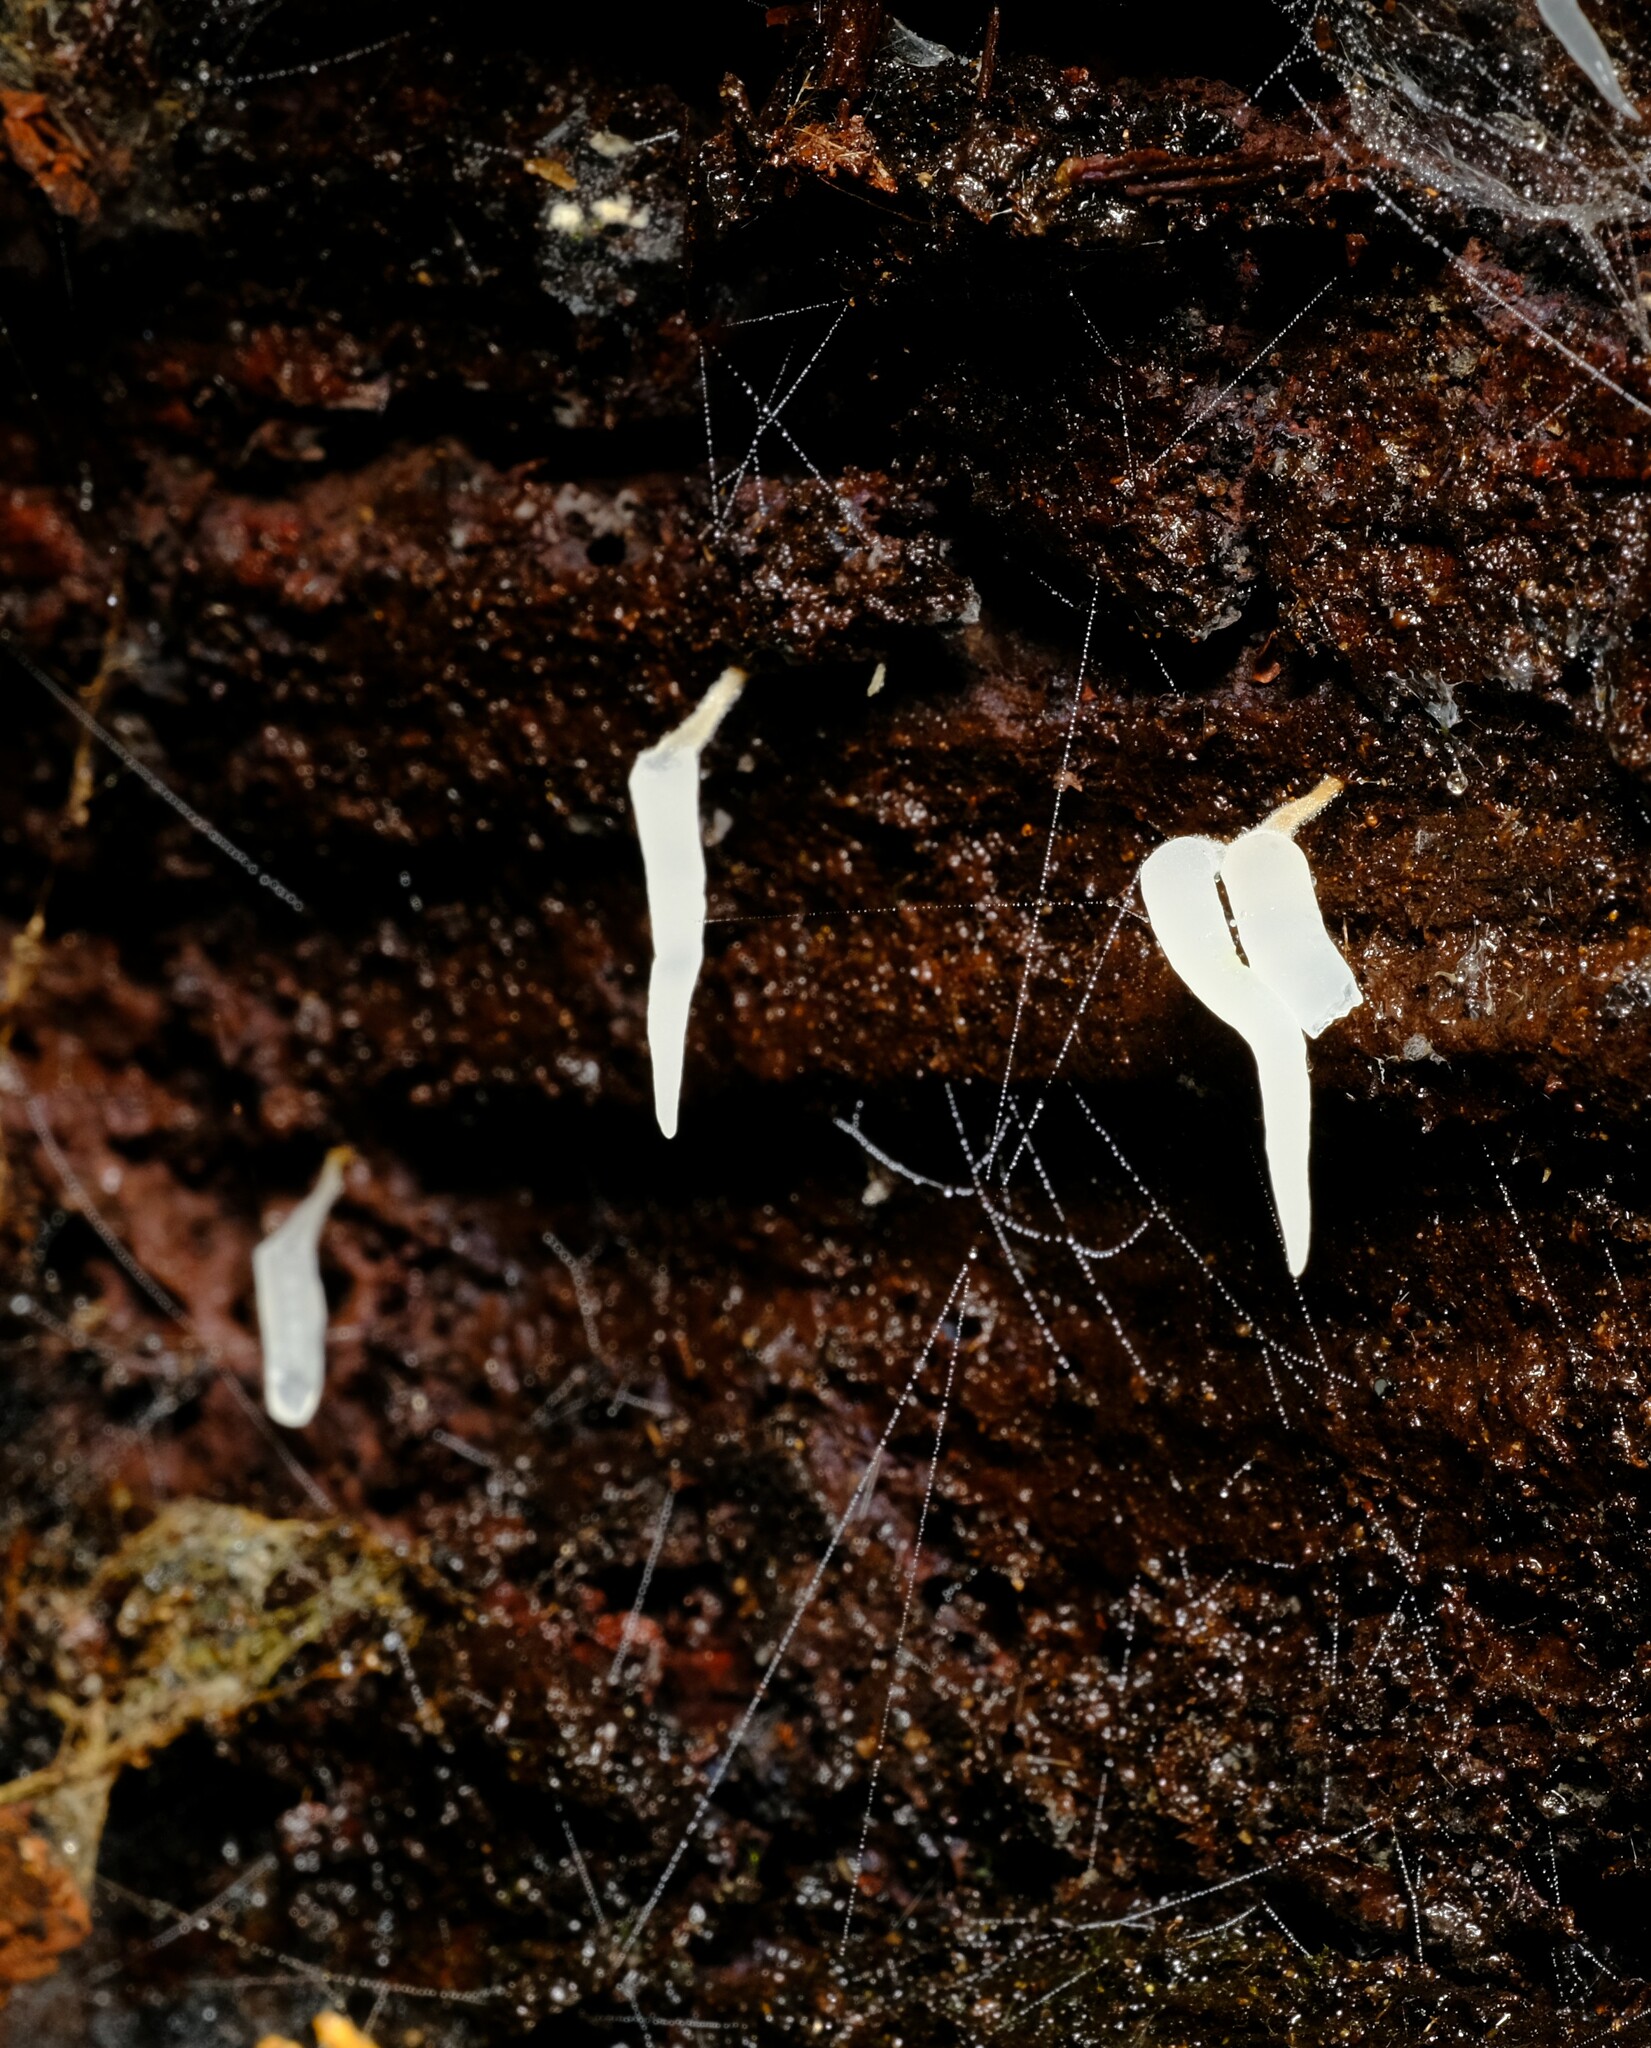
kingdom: Fungi
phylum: Basidiomycota
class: Agaricomycetes
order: Agaricales
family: Clavariaceae
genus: Mucronella
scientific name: Mucronella pendula
